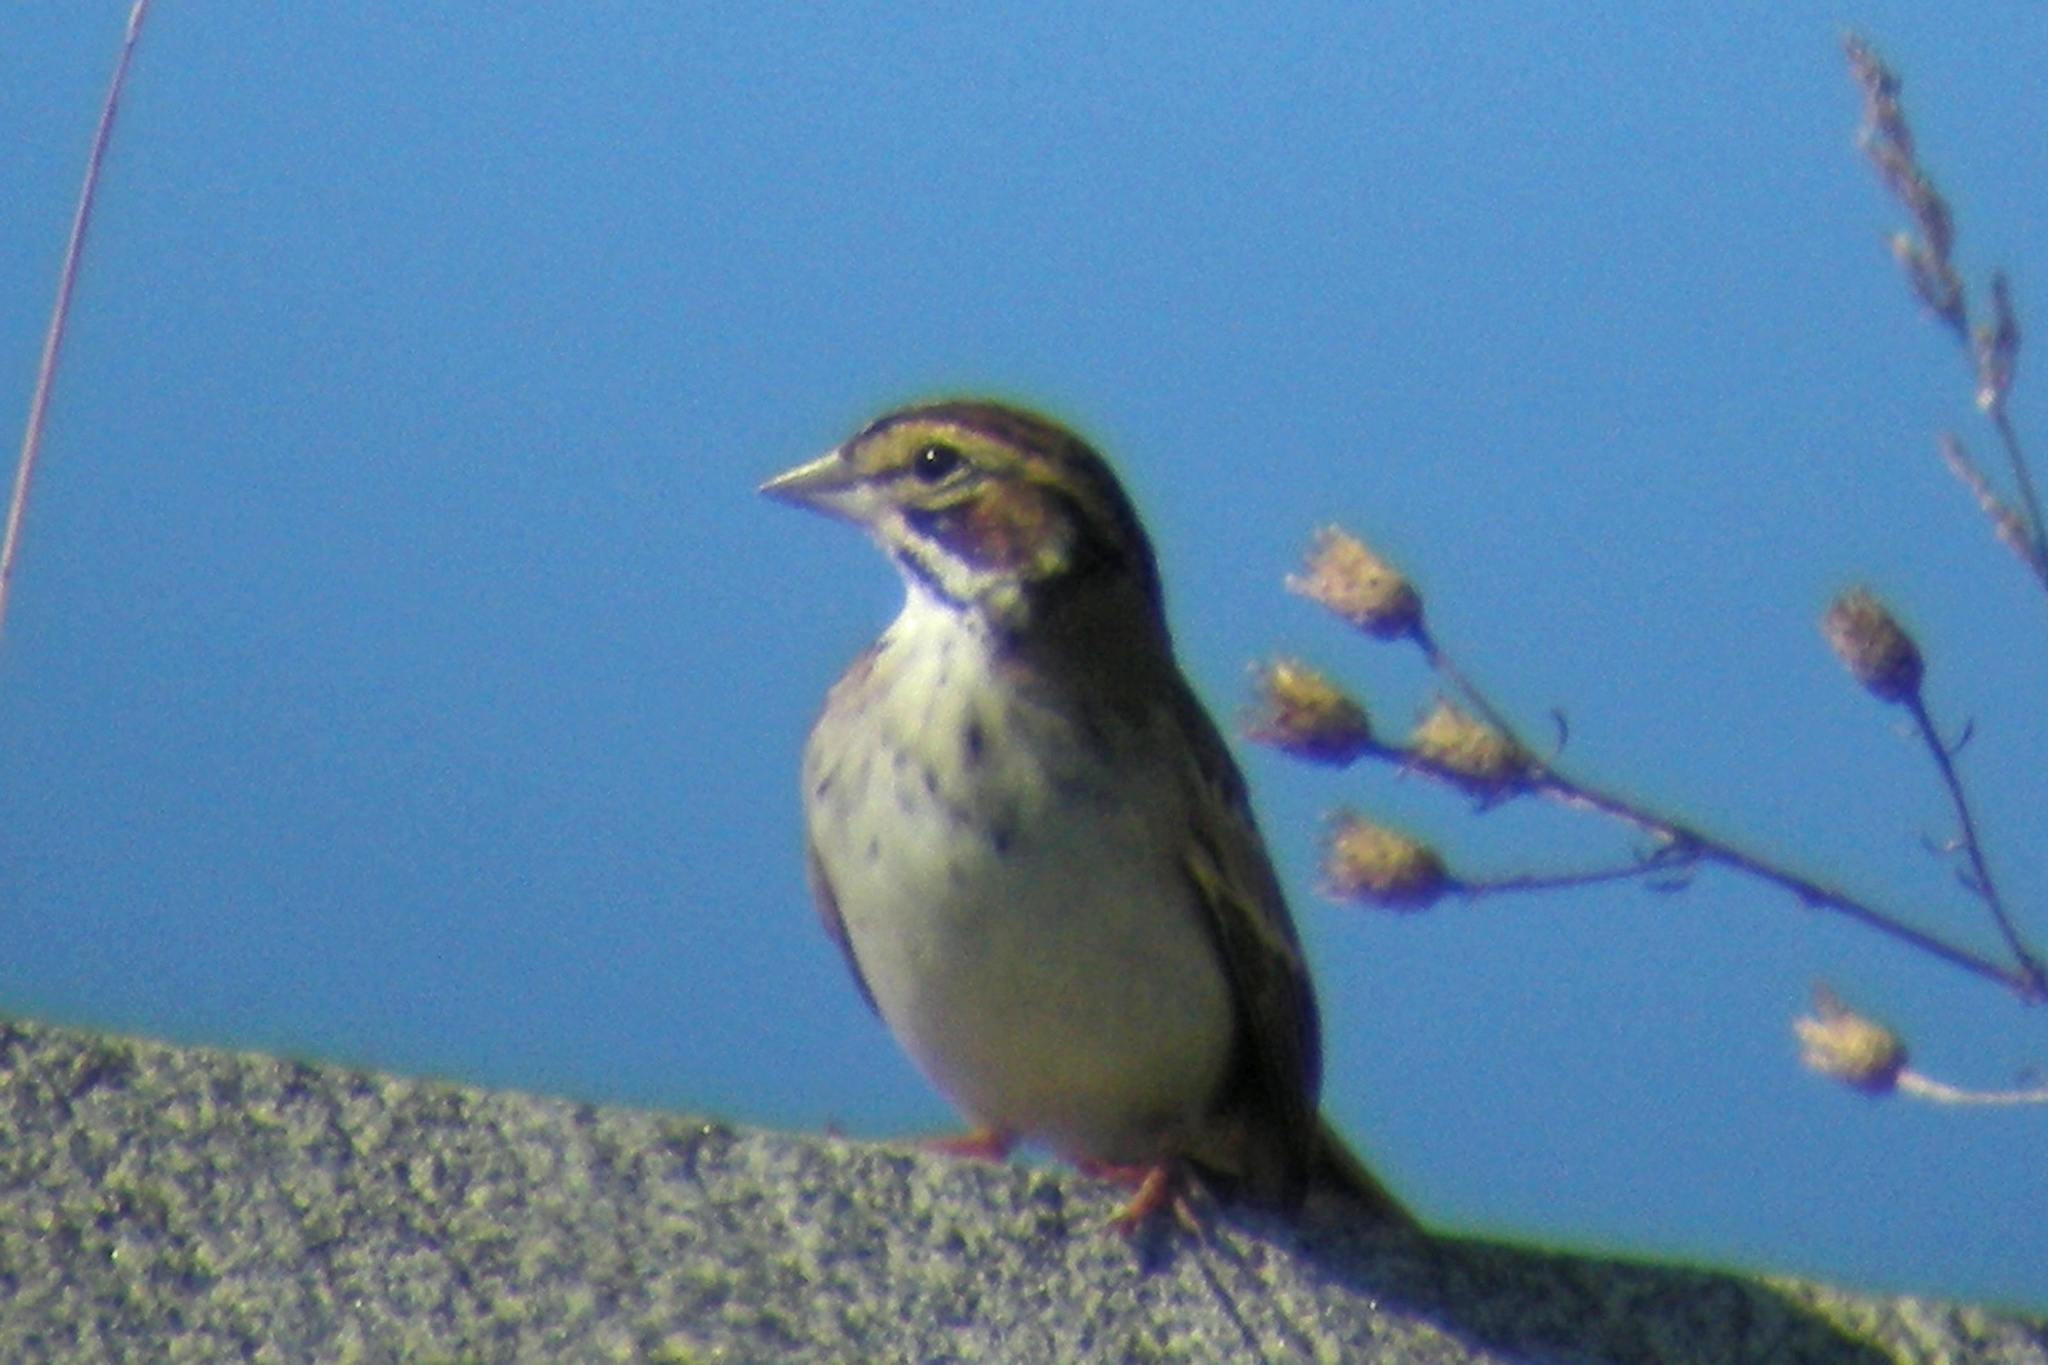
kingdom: Animalia
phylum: Chordata
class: Aves
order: Passeriformes
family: Passerellidae
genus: Chondestes
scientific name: Chondestes grammacus
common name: Lark sparrow
